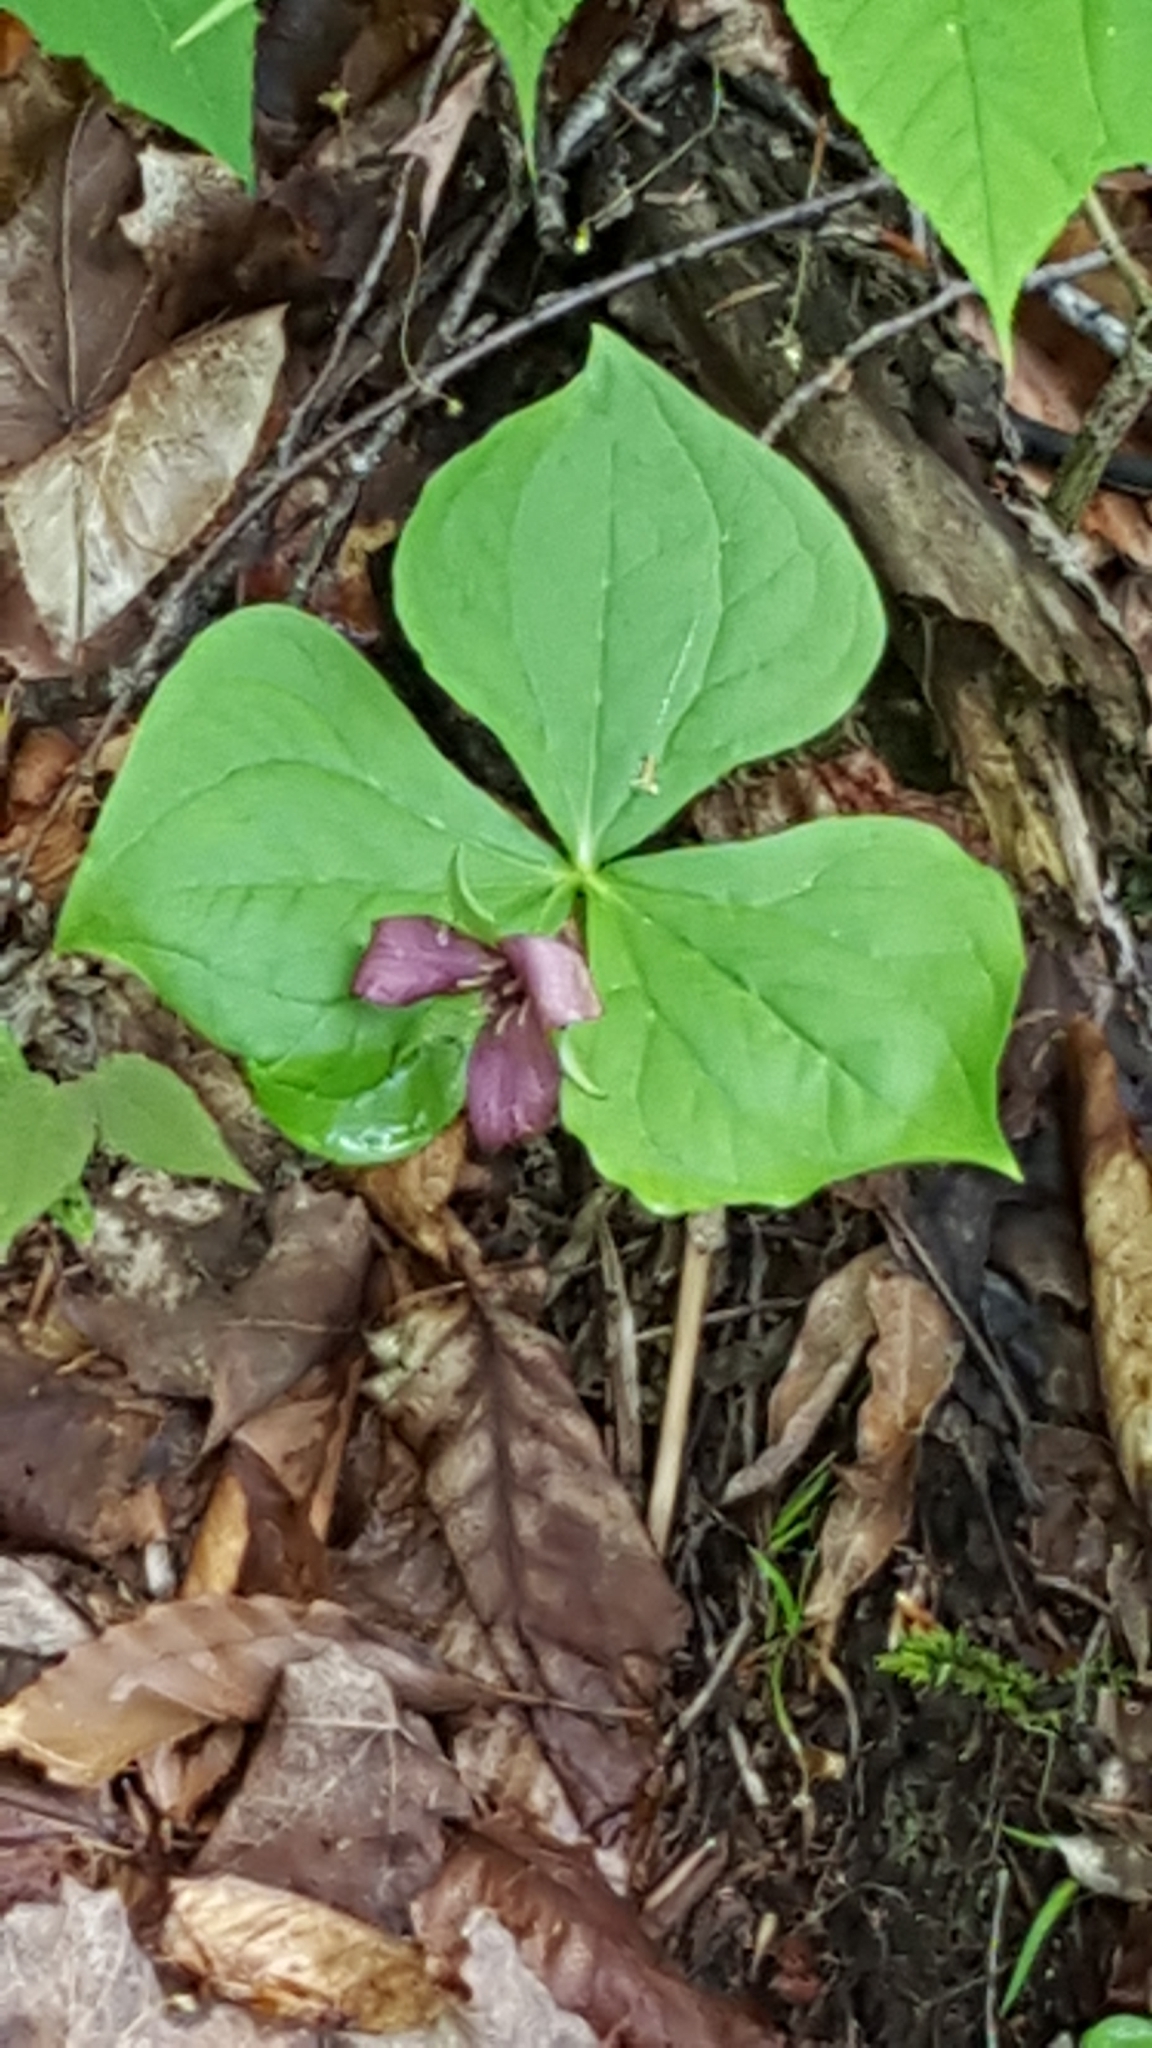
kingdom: Plantae
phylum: Tracheophyta
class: Liliopsida
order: Liliales
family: Melanthiaceae
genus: Trillium
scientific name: Trillium erectum
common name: Purple trillium
